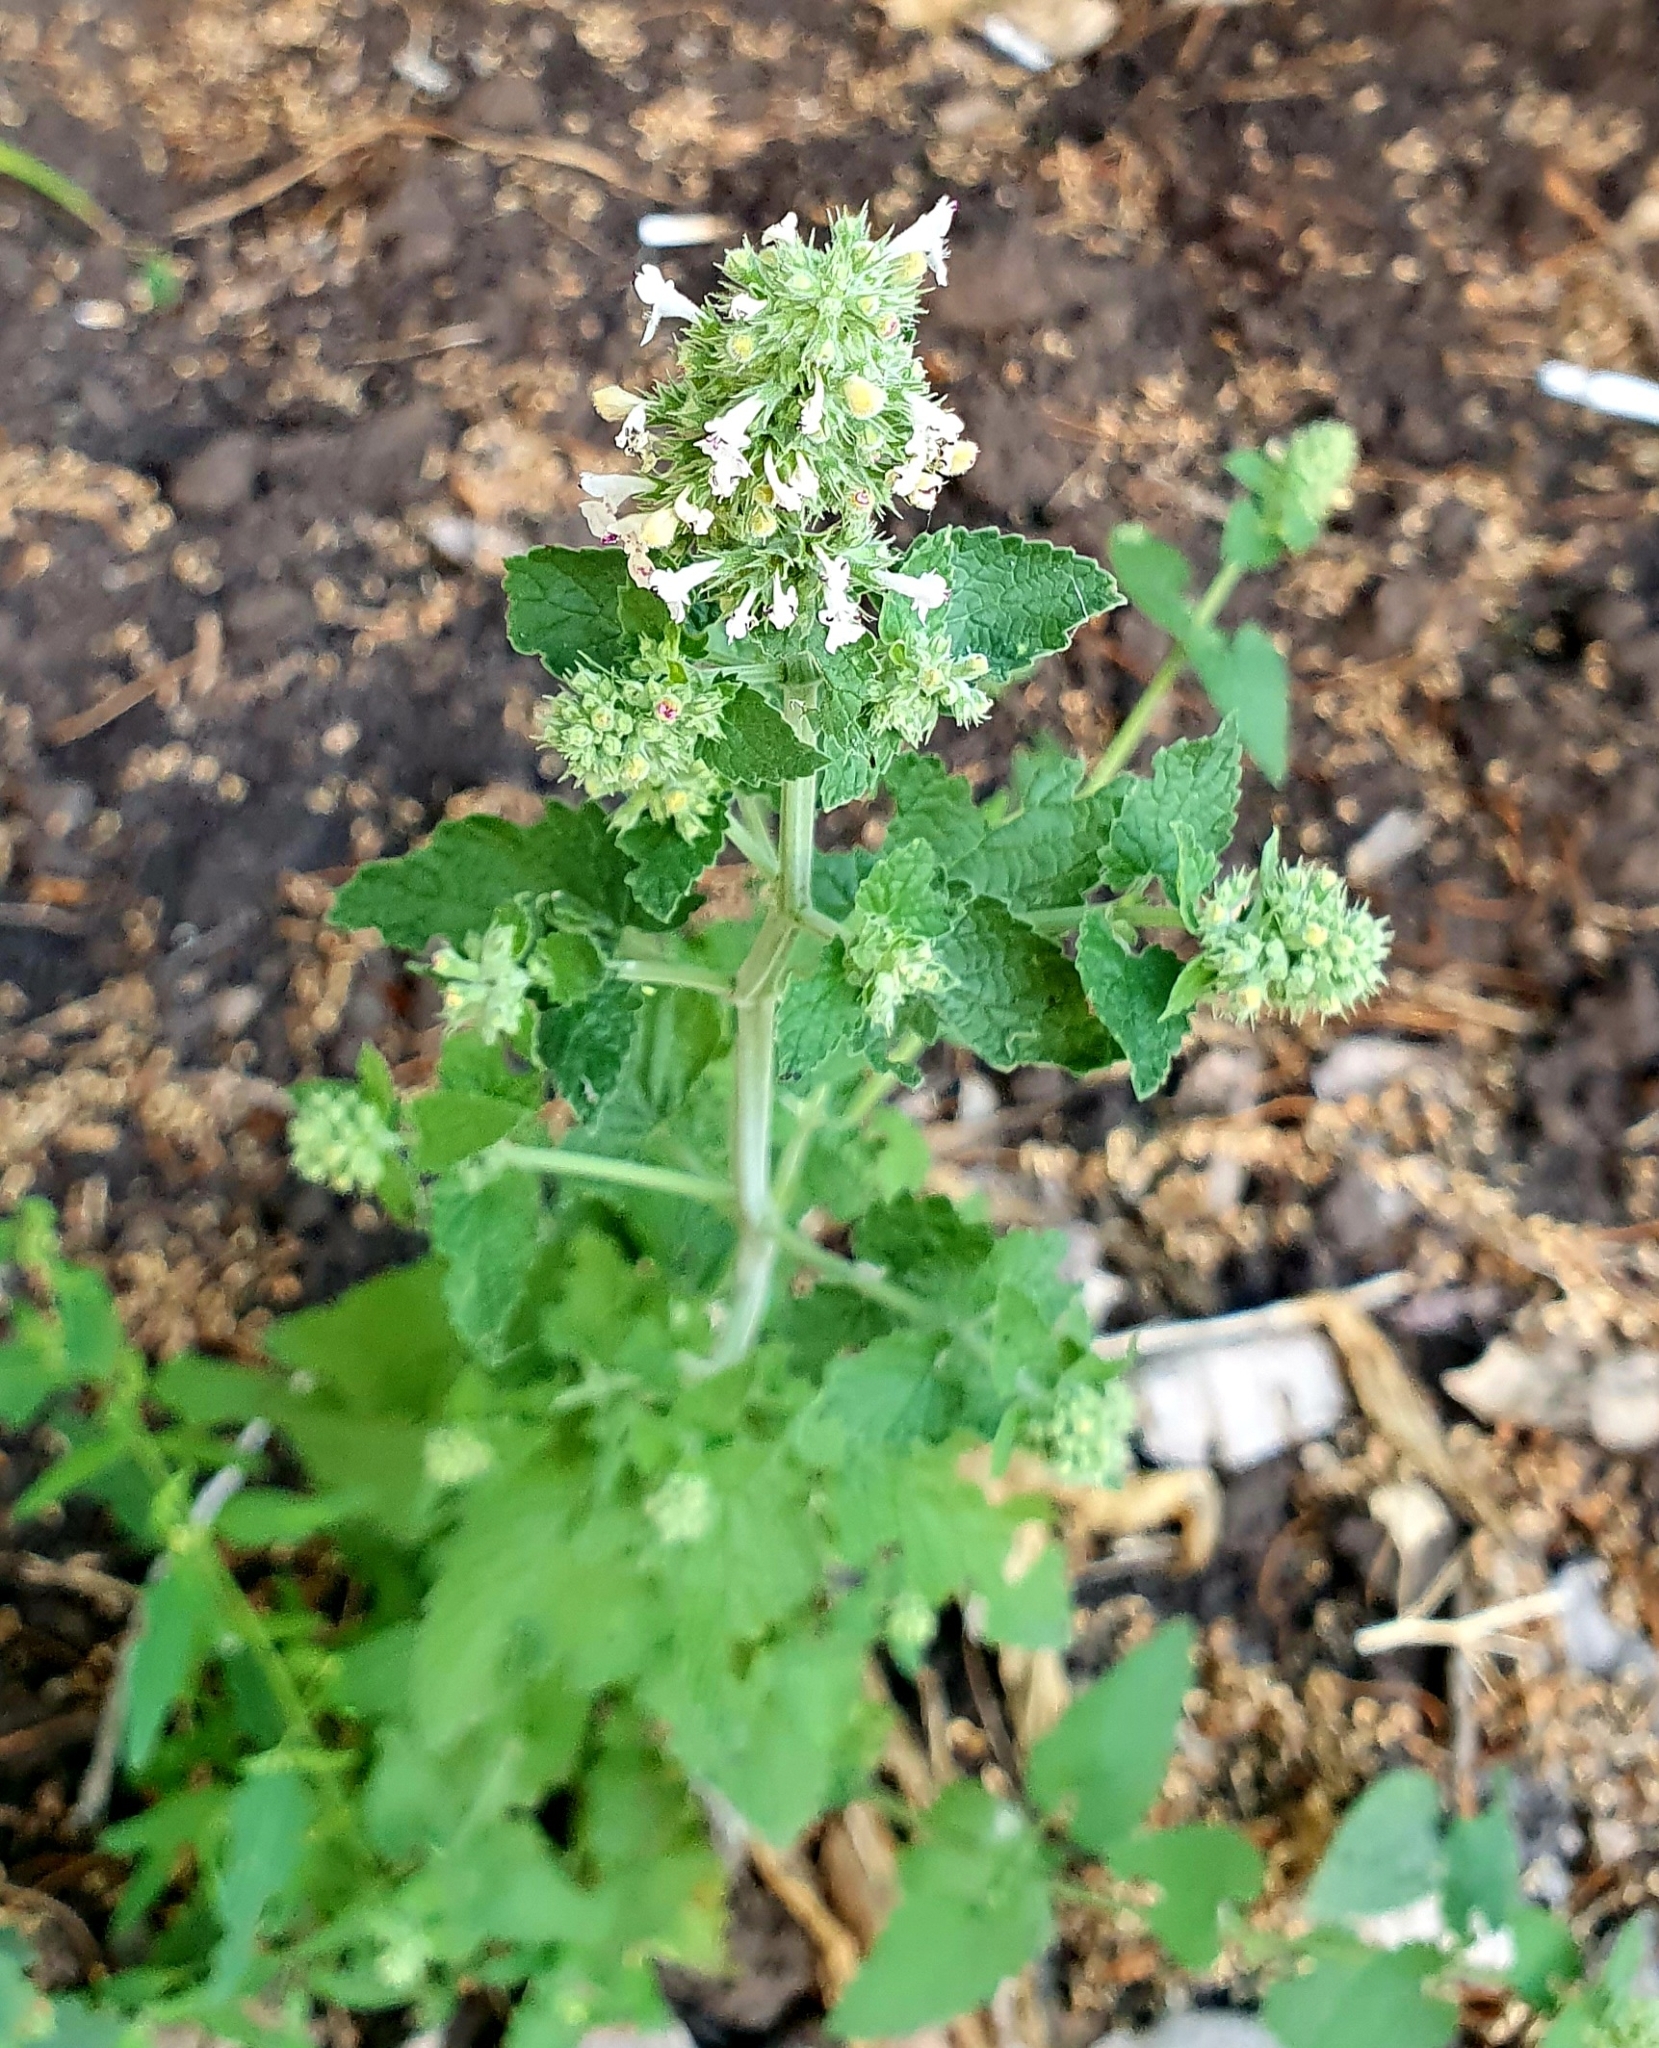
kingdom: Plantae
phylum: Tracheophyta
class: Magnoliopsida
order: Lamiales
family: Lamiaceae
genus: Nepeta
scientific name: Nepeta cataria
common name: Catnip
